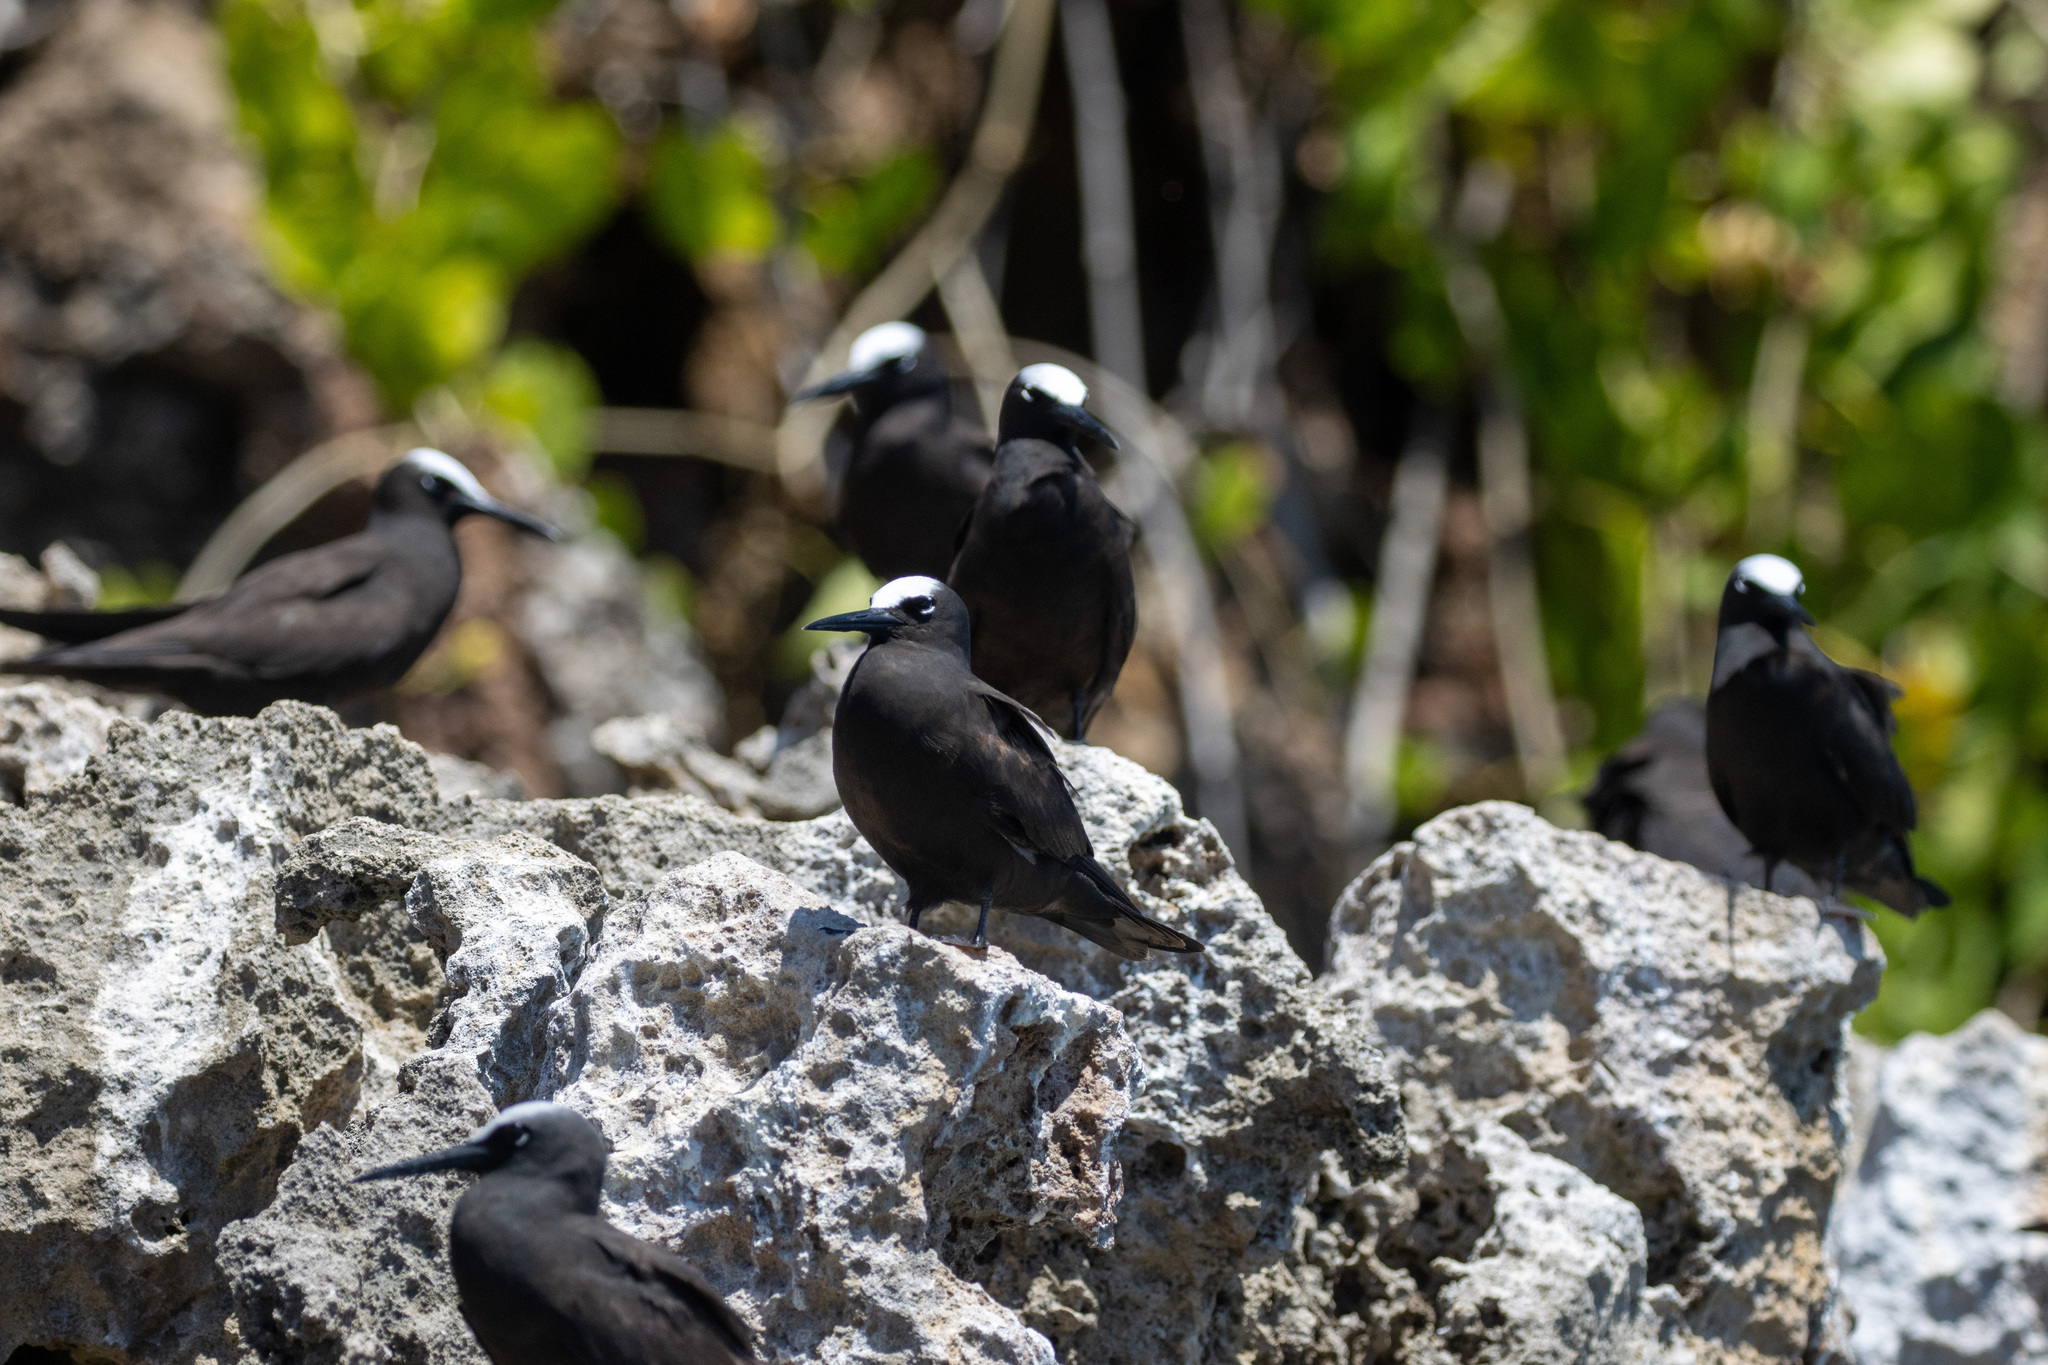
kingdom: Animalia
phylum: Chordata
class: Aves
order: Charadriiformes
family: Laridae
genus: Anous
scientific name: Anous minutus
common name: Black noddy
